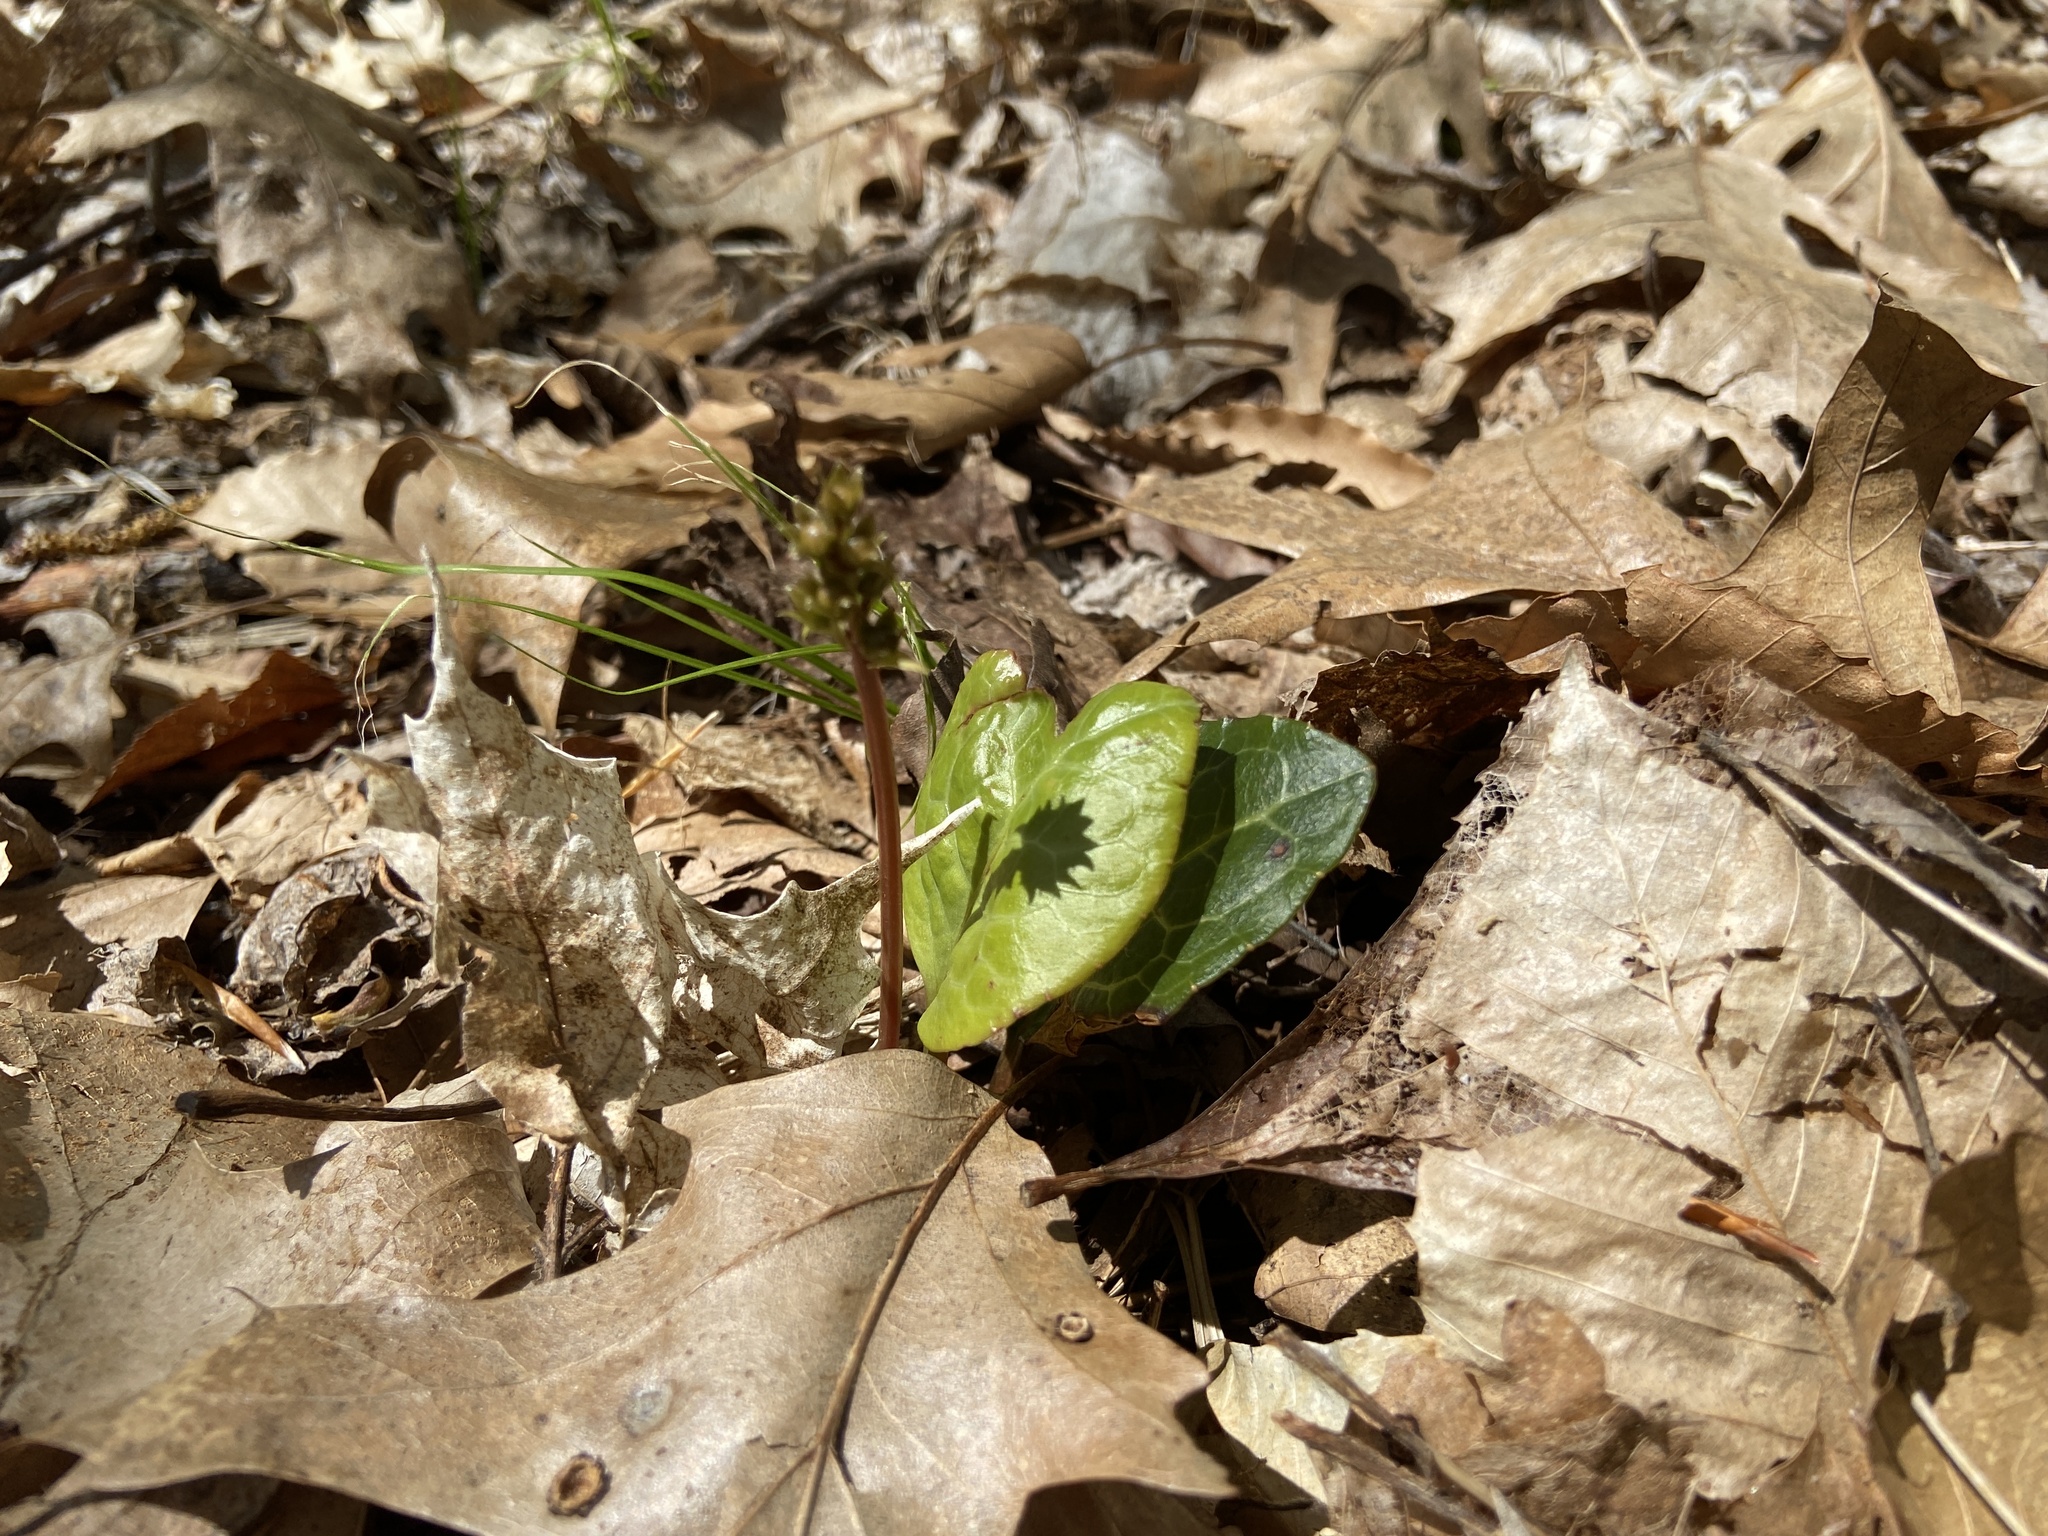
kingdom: Plantae
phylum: Tracheophyta
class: Magnoliopsida
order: Ericales
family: Ericaceae
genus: Pyrola
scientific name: Pyrola americana
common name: American wintergreen
